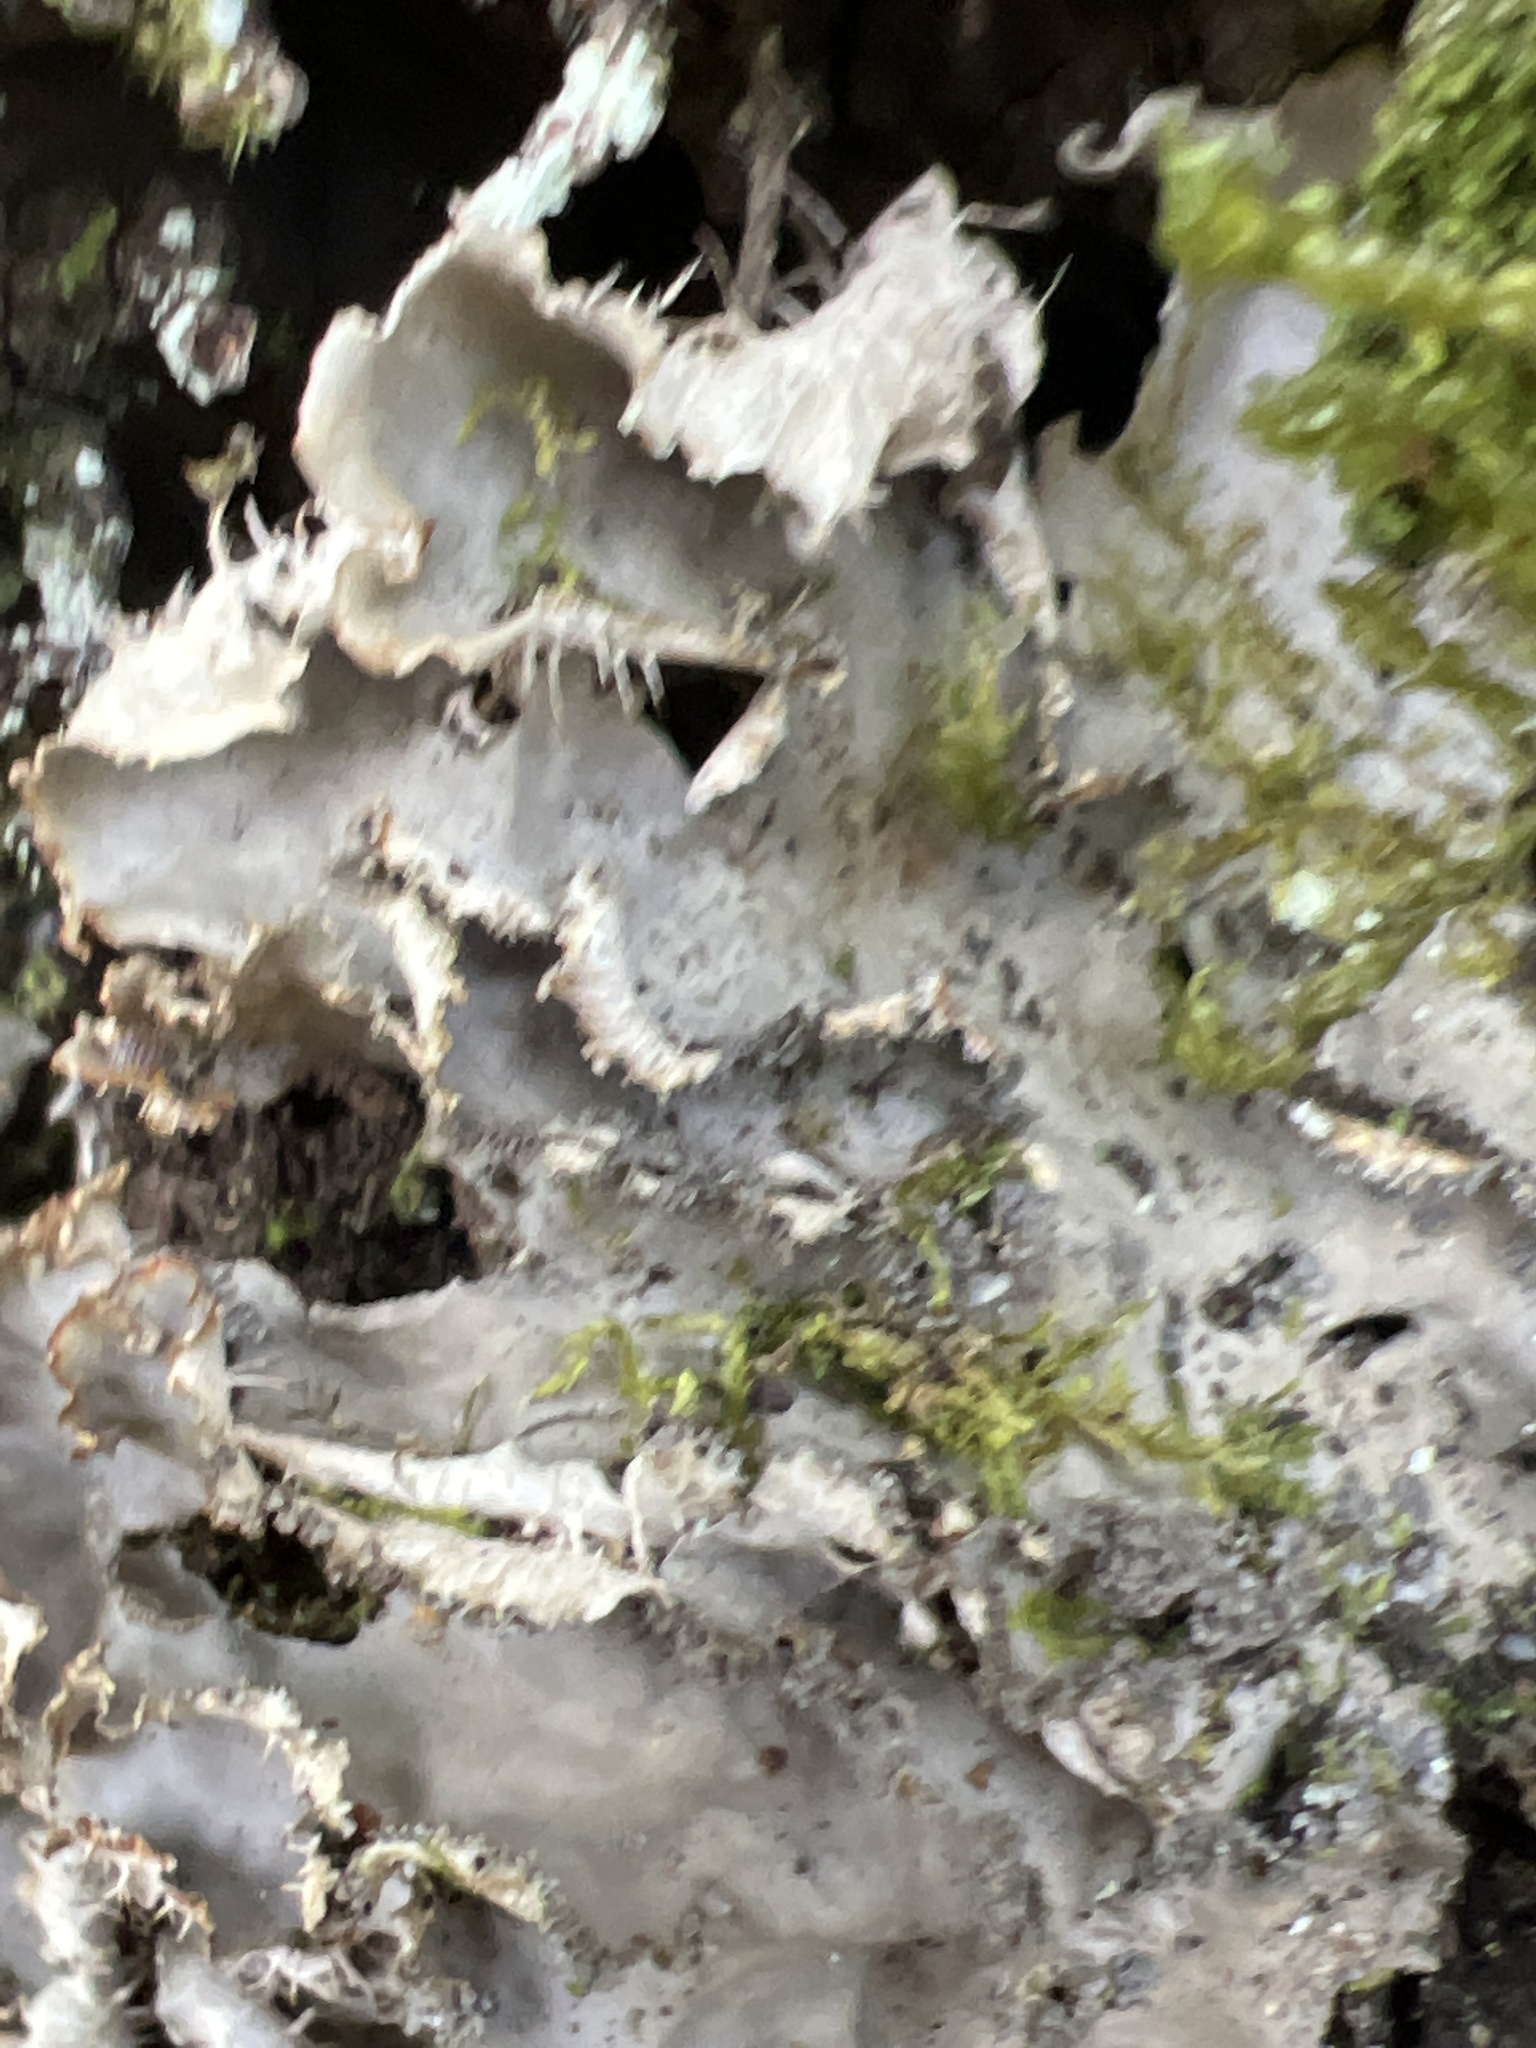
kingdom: Fungi
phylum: Ascomycota
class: Lecanoromycetes
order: Peltigerales
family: Peltigeraceae
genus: Peltigera
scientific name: Peltigera praetextata
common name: Scaly dog-lichen
